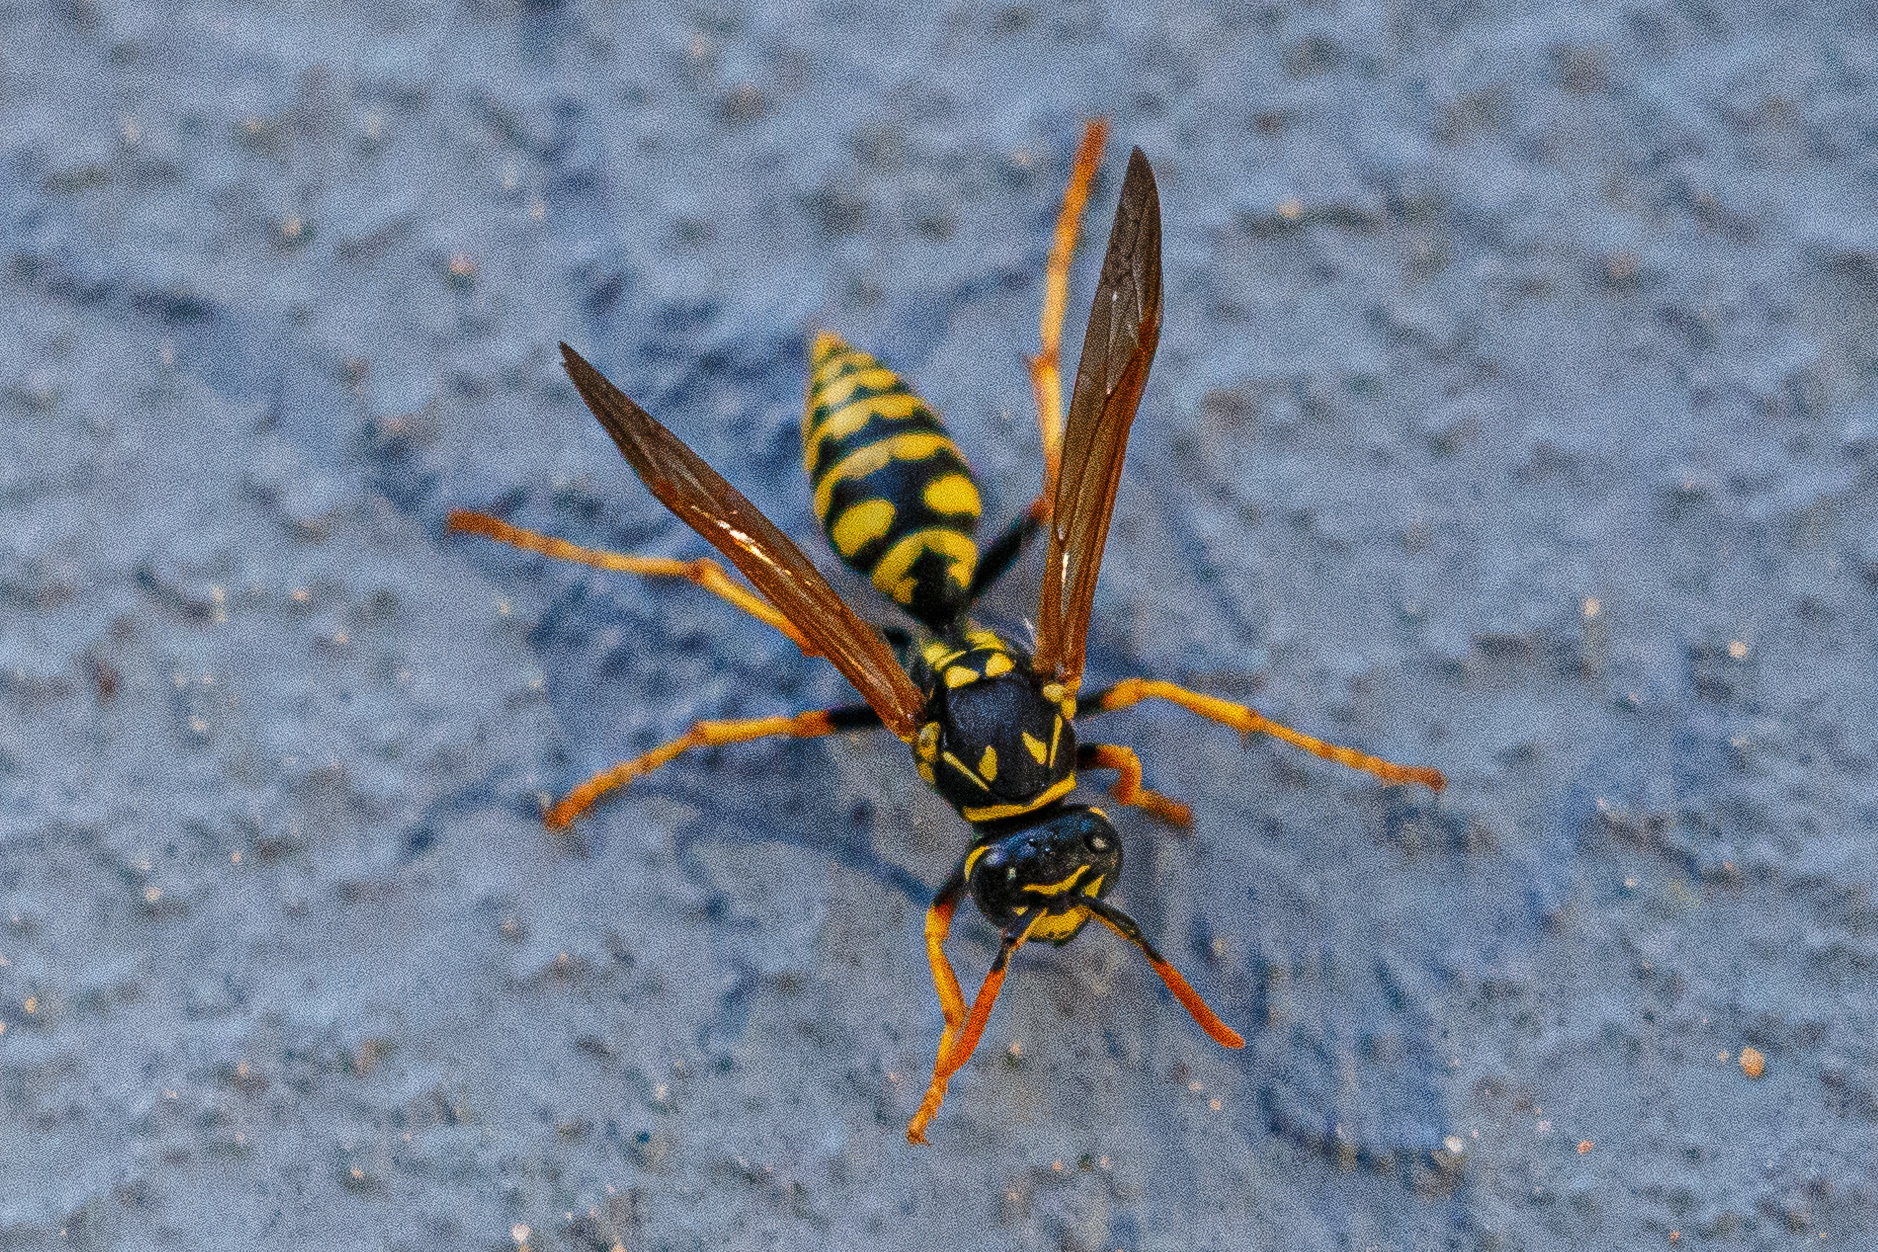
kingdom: Animalia
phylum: Arthropoda
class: Insecta
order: Hymenoptera
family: Eumenidae
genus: Polistes
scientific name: Polistes dominula
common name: Paper wasp
